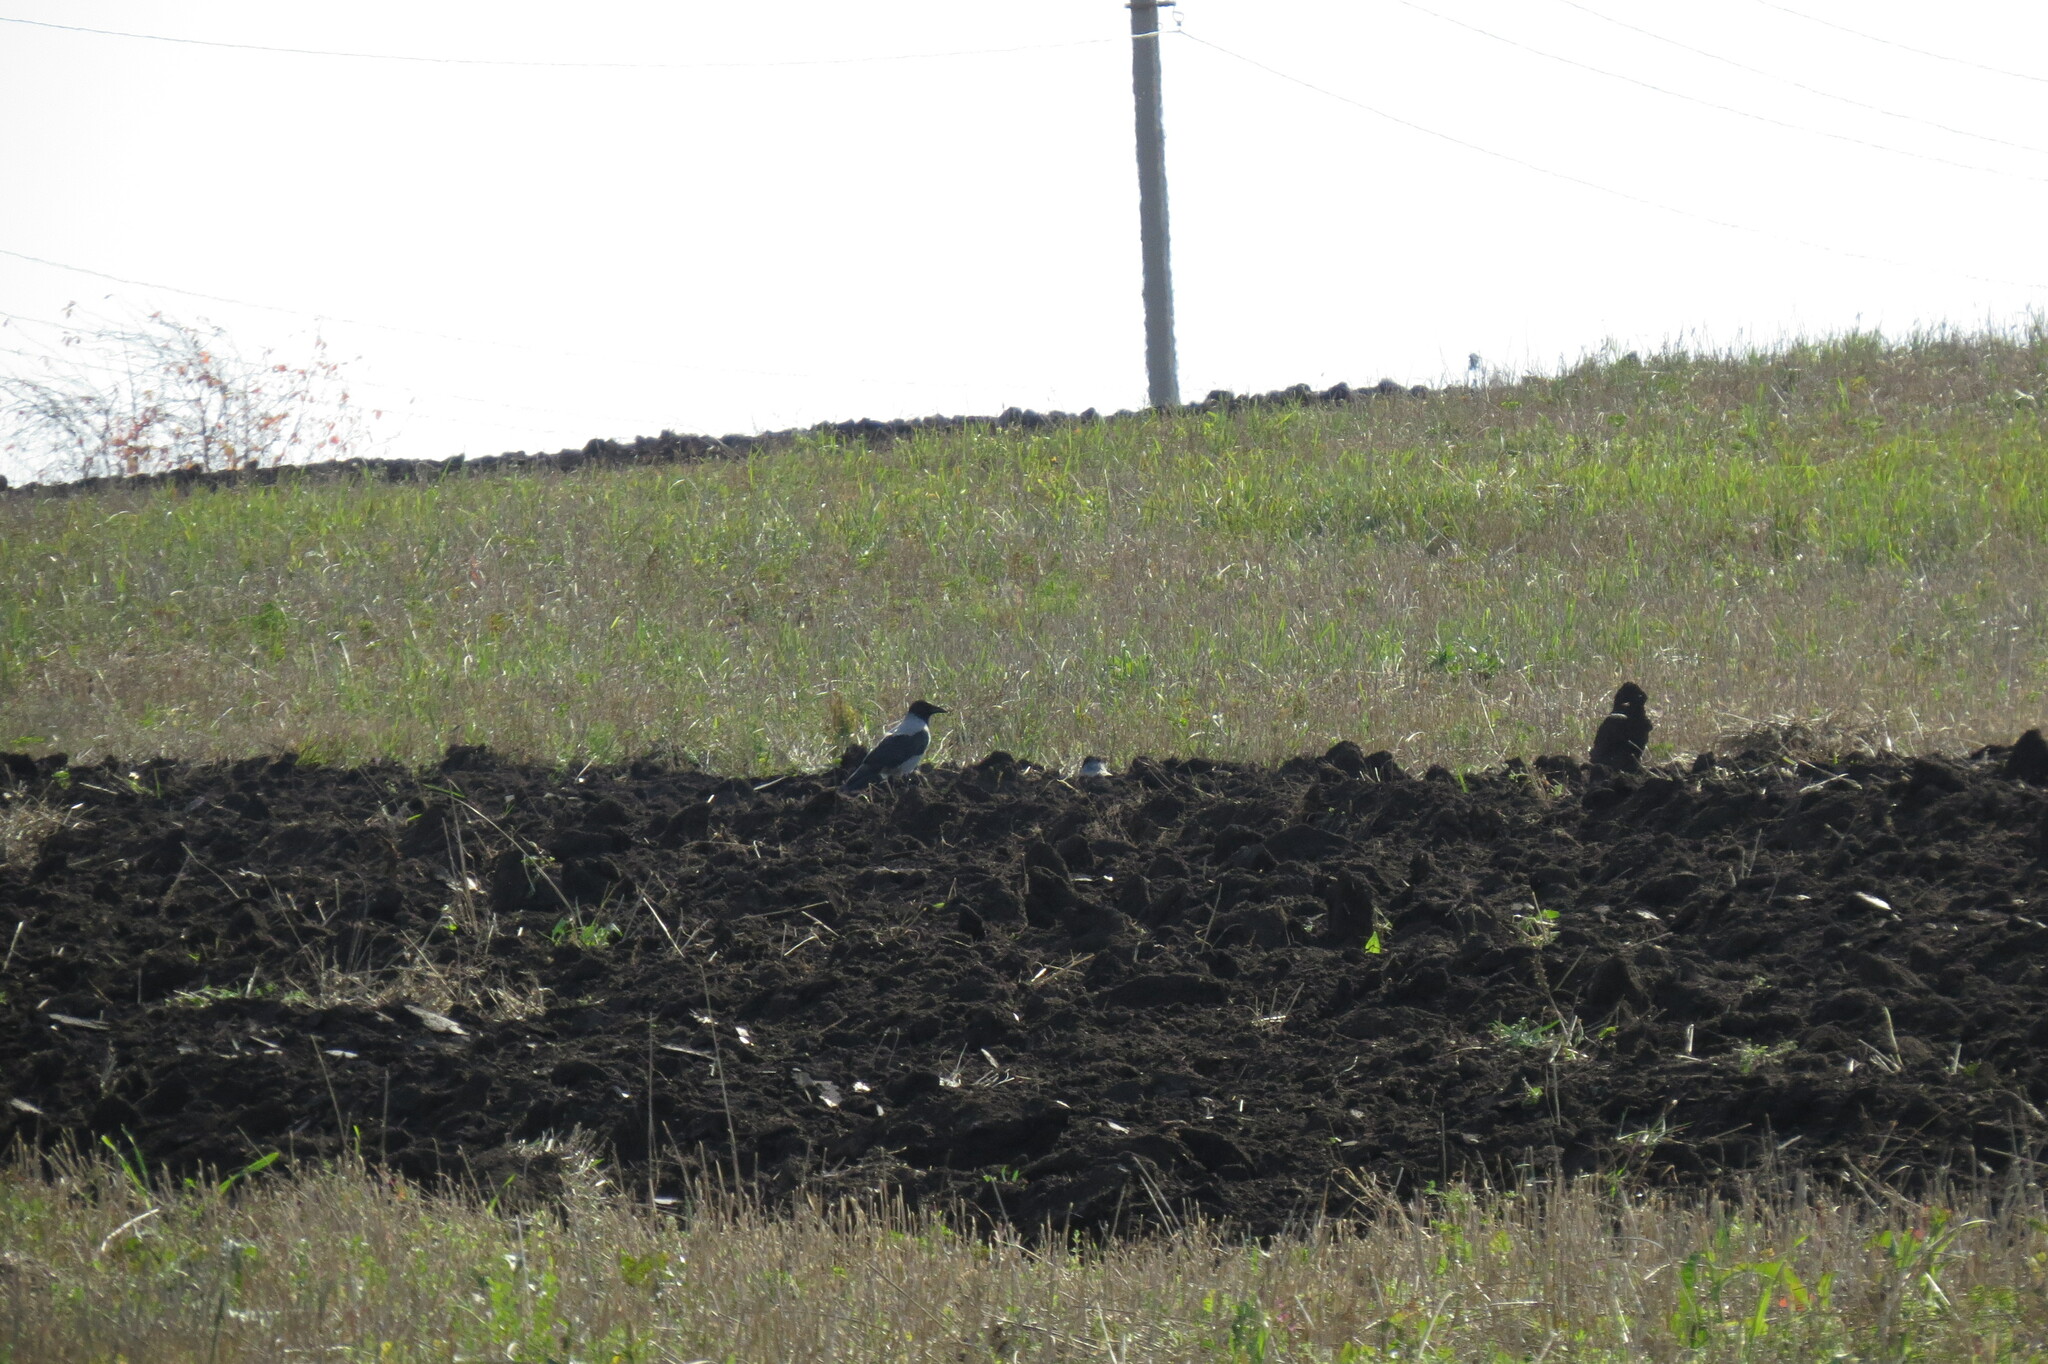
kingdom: Animalia
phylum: Chordata
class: Aves
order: Passeriformes
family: Corvidae
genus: Corvus
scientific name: Corvus cornix
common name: Hooded crow
